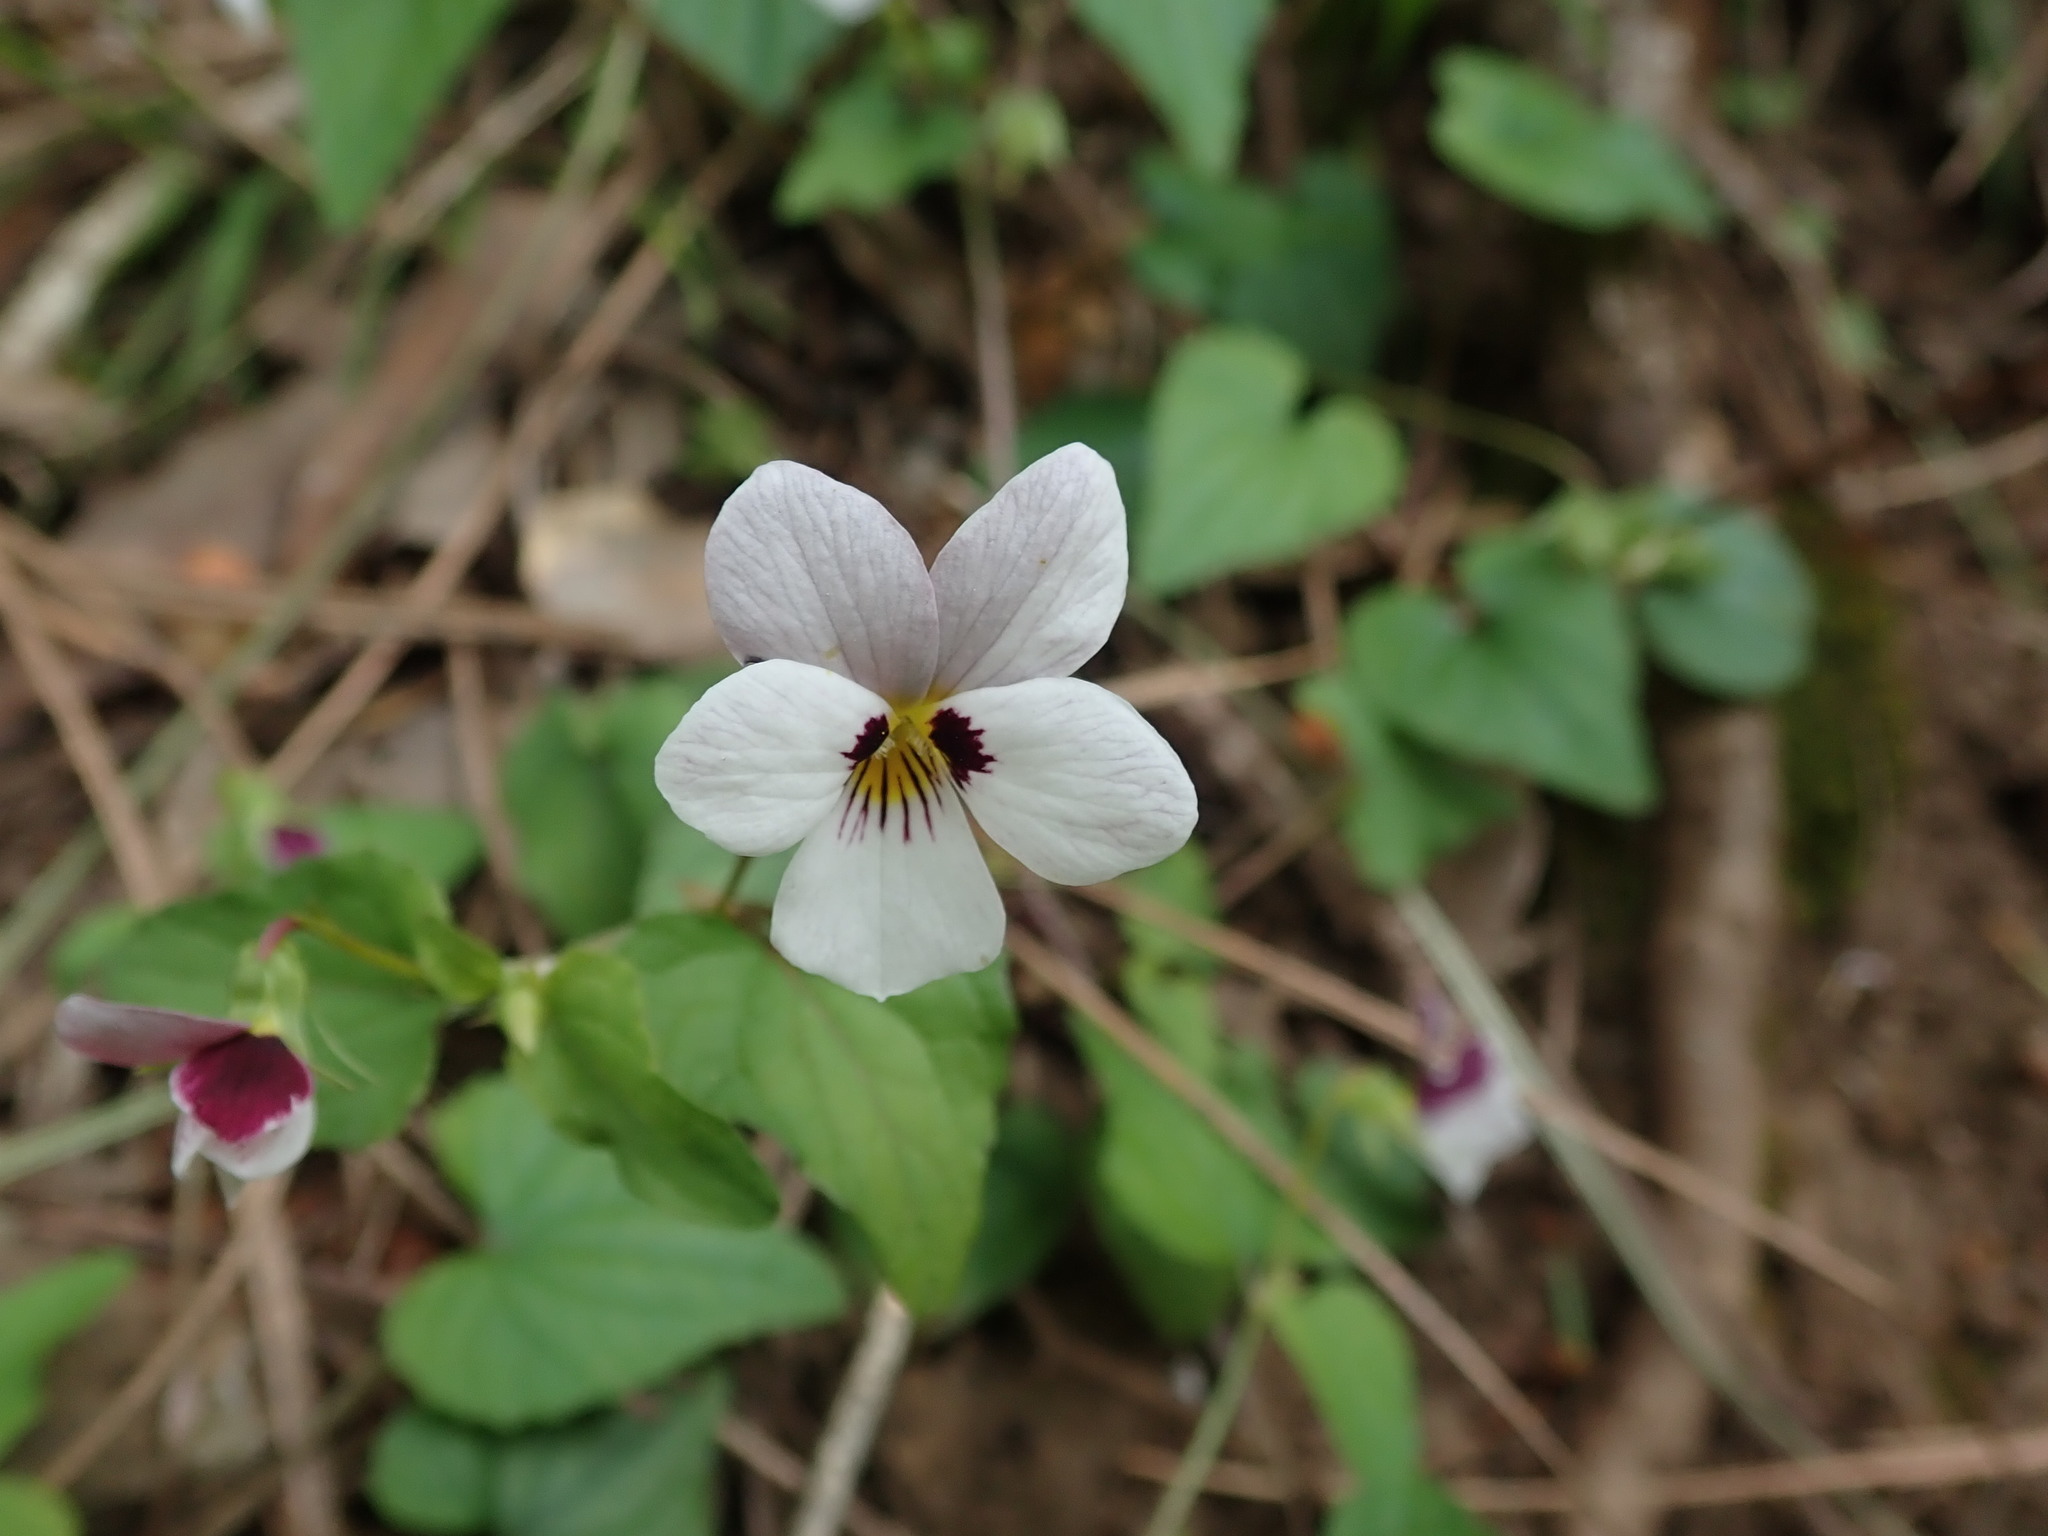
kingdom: Plantae
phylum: Tracheophyta
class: Magnoliopsida
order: Malpighiales
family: Violaceae
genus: Viola
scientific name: Viola ocellata
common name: Western heart's ease
